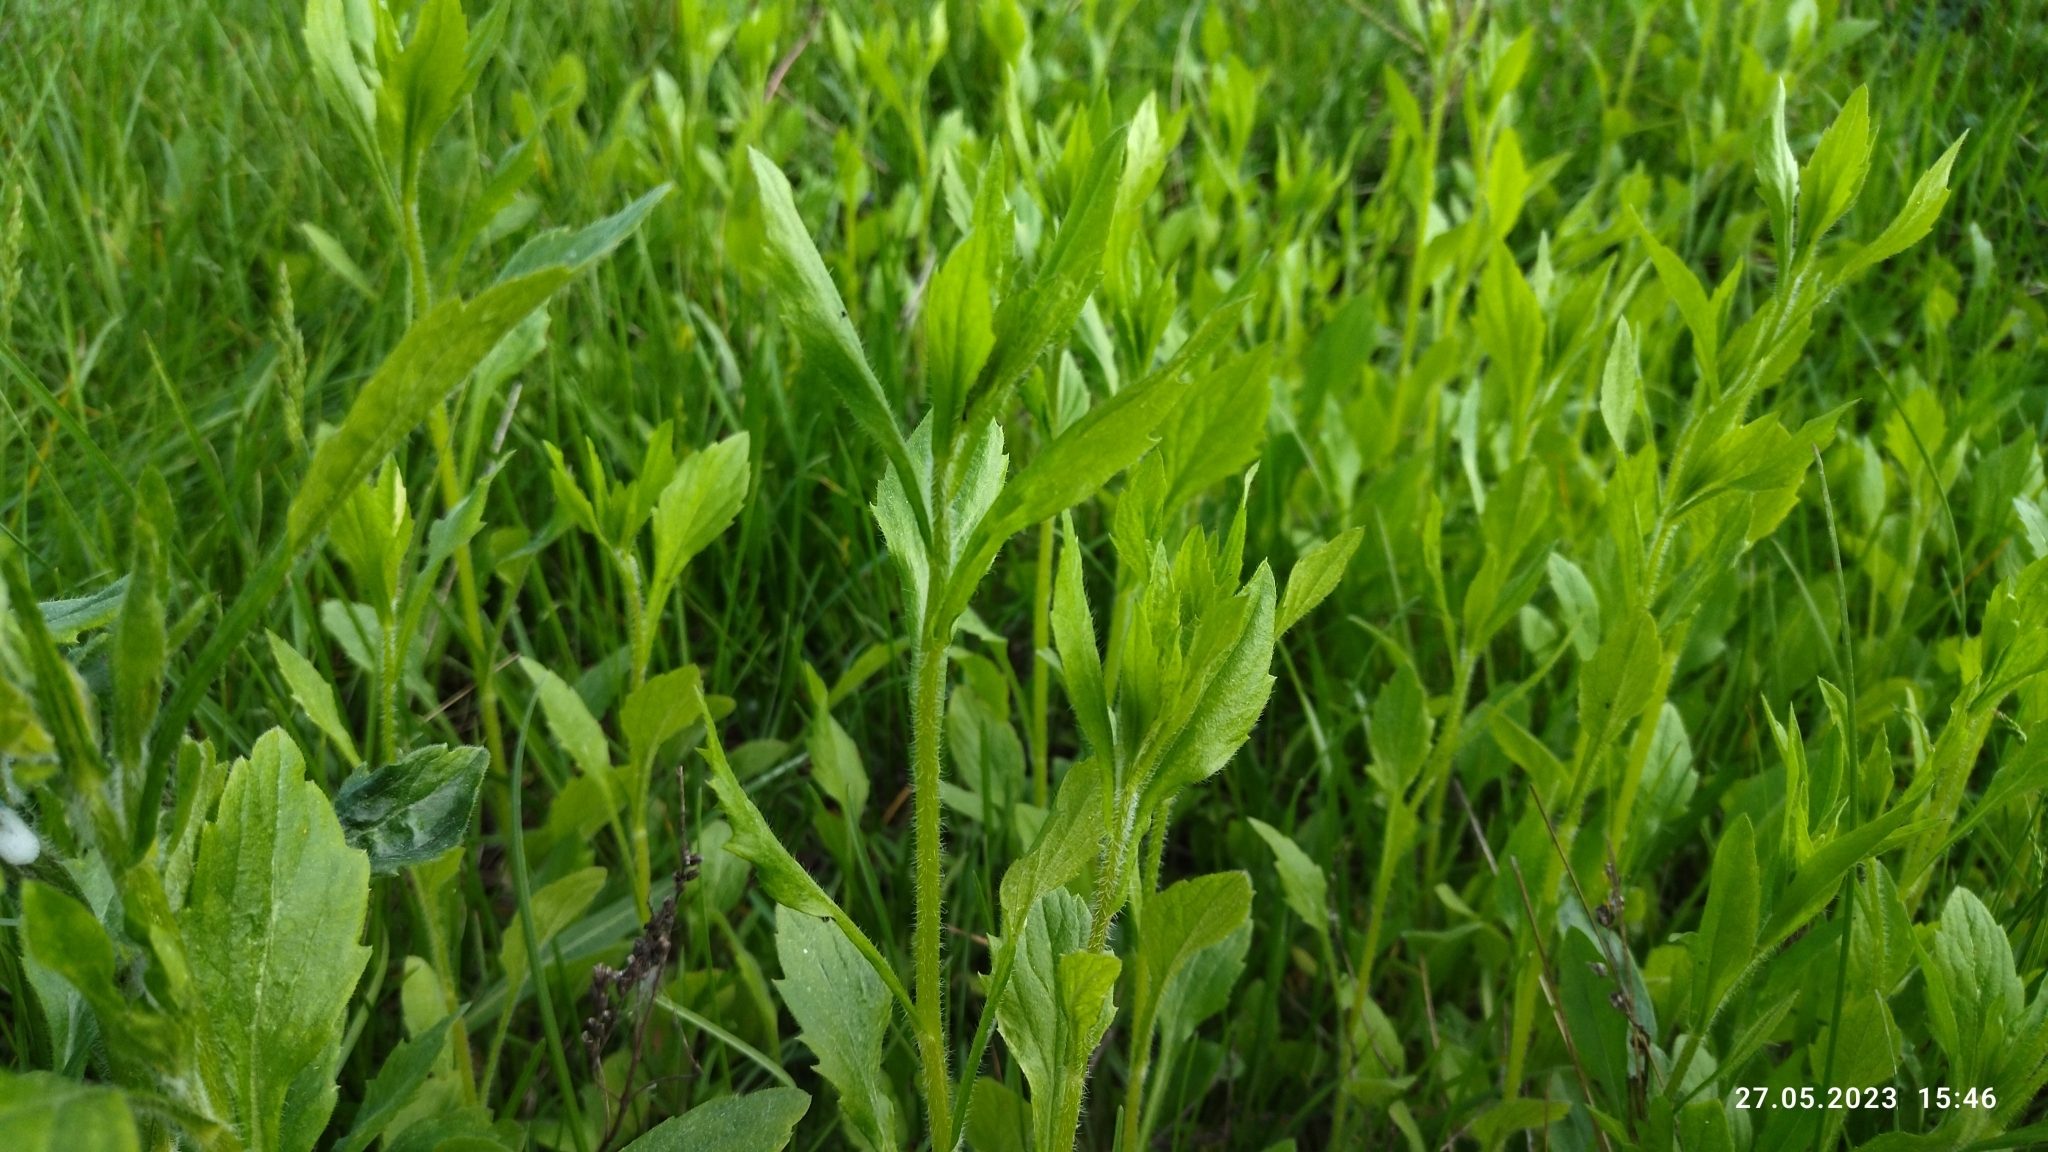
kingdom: Plantae
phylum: Tracheophyta
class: Magnoliopsida
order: Asterales
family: Asteraceae
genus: Erigeron
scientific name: Erigeron annuus
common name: Tall fleabane
